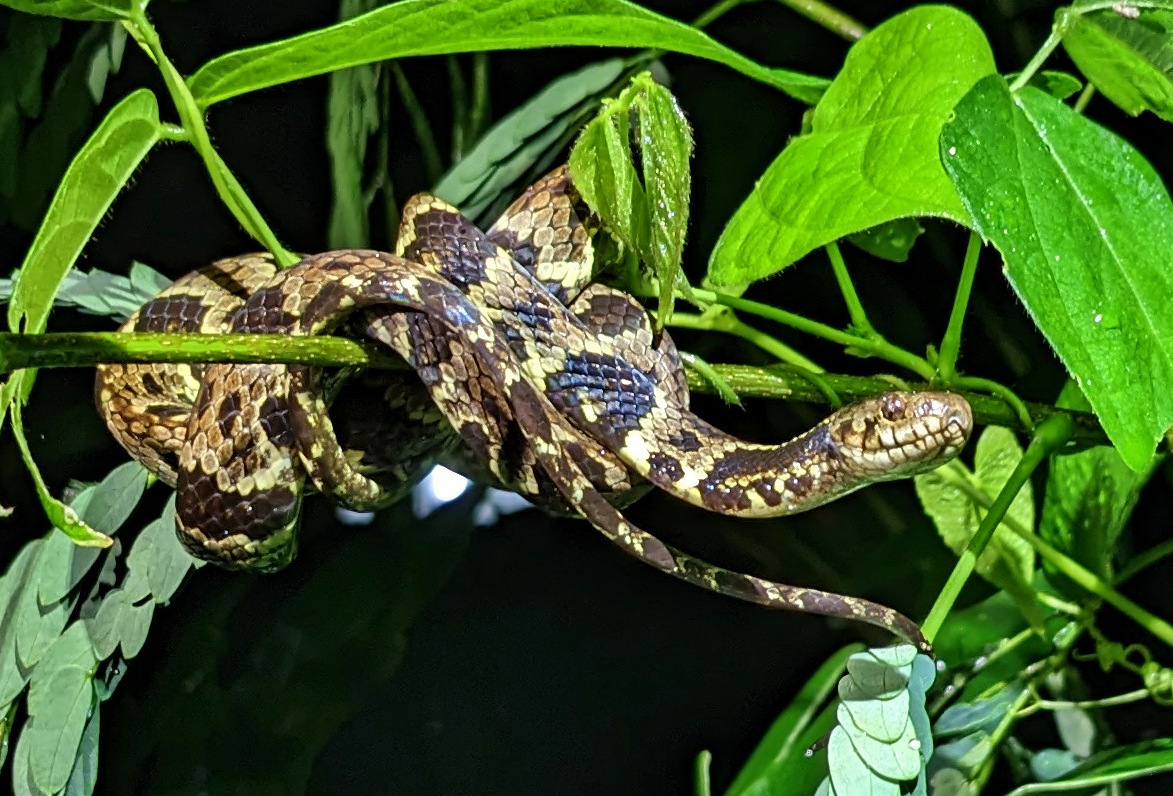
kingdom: Animalia
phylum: Chordata
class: Squamata
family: Colubridae
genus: Dipsas
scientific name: Dipsas trinitatis
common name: Trinidad snail-eater
